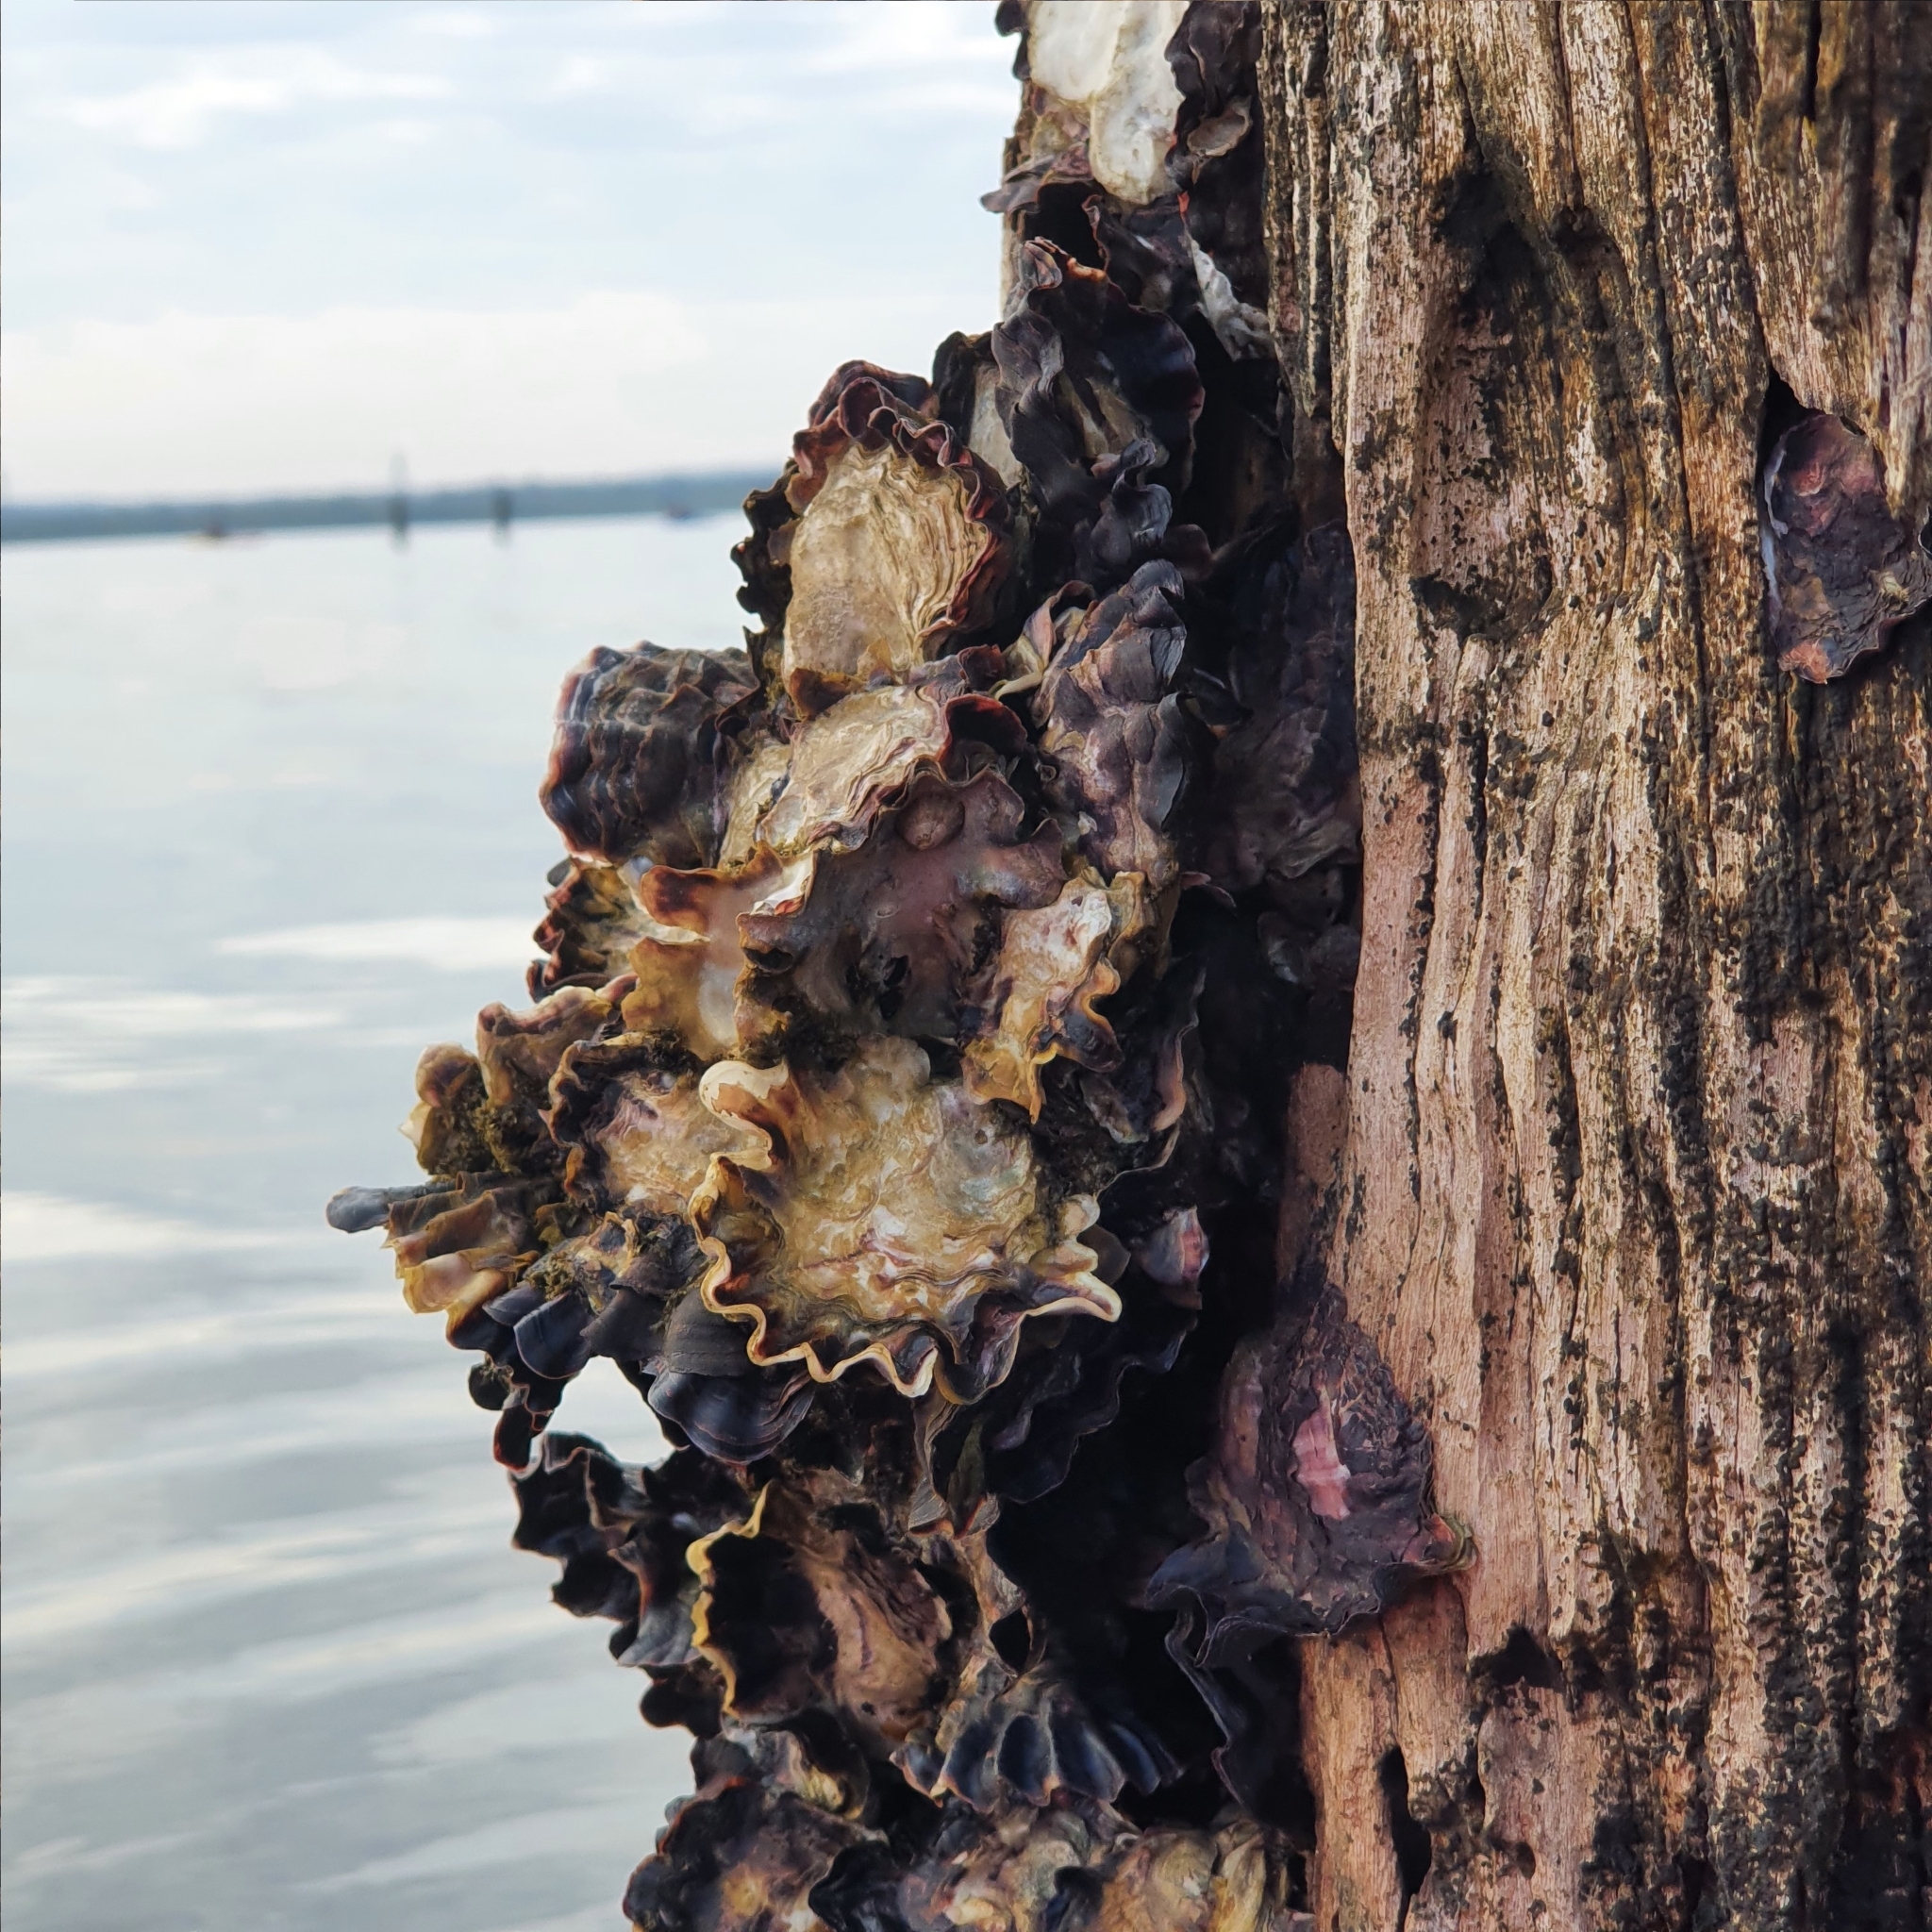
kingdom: Animalia
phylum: Mollusca
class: Bivalvia
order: Ostreida
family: Ostreidae
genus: Saccostrea
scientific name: Saccostrea glomerata
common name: Sydney cupped oyster
